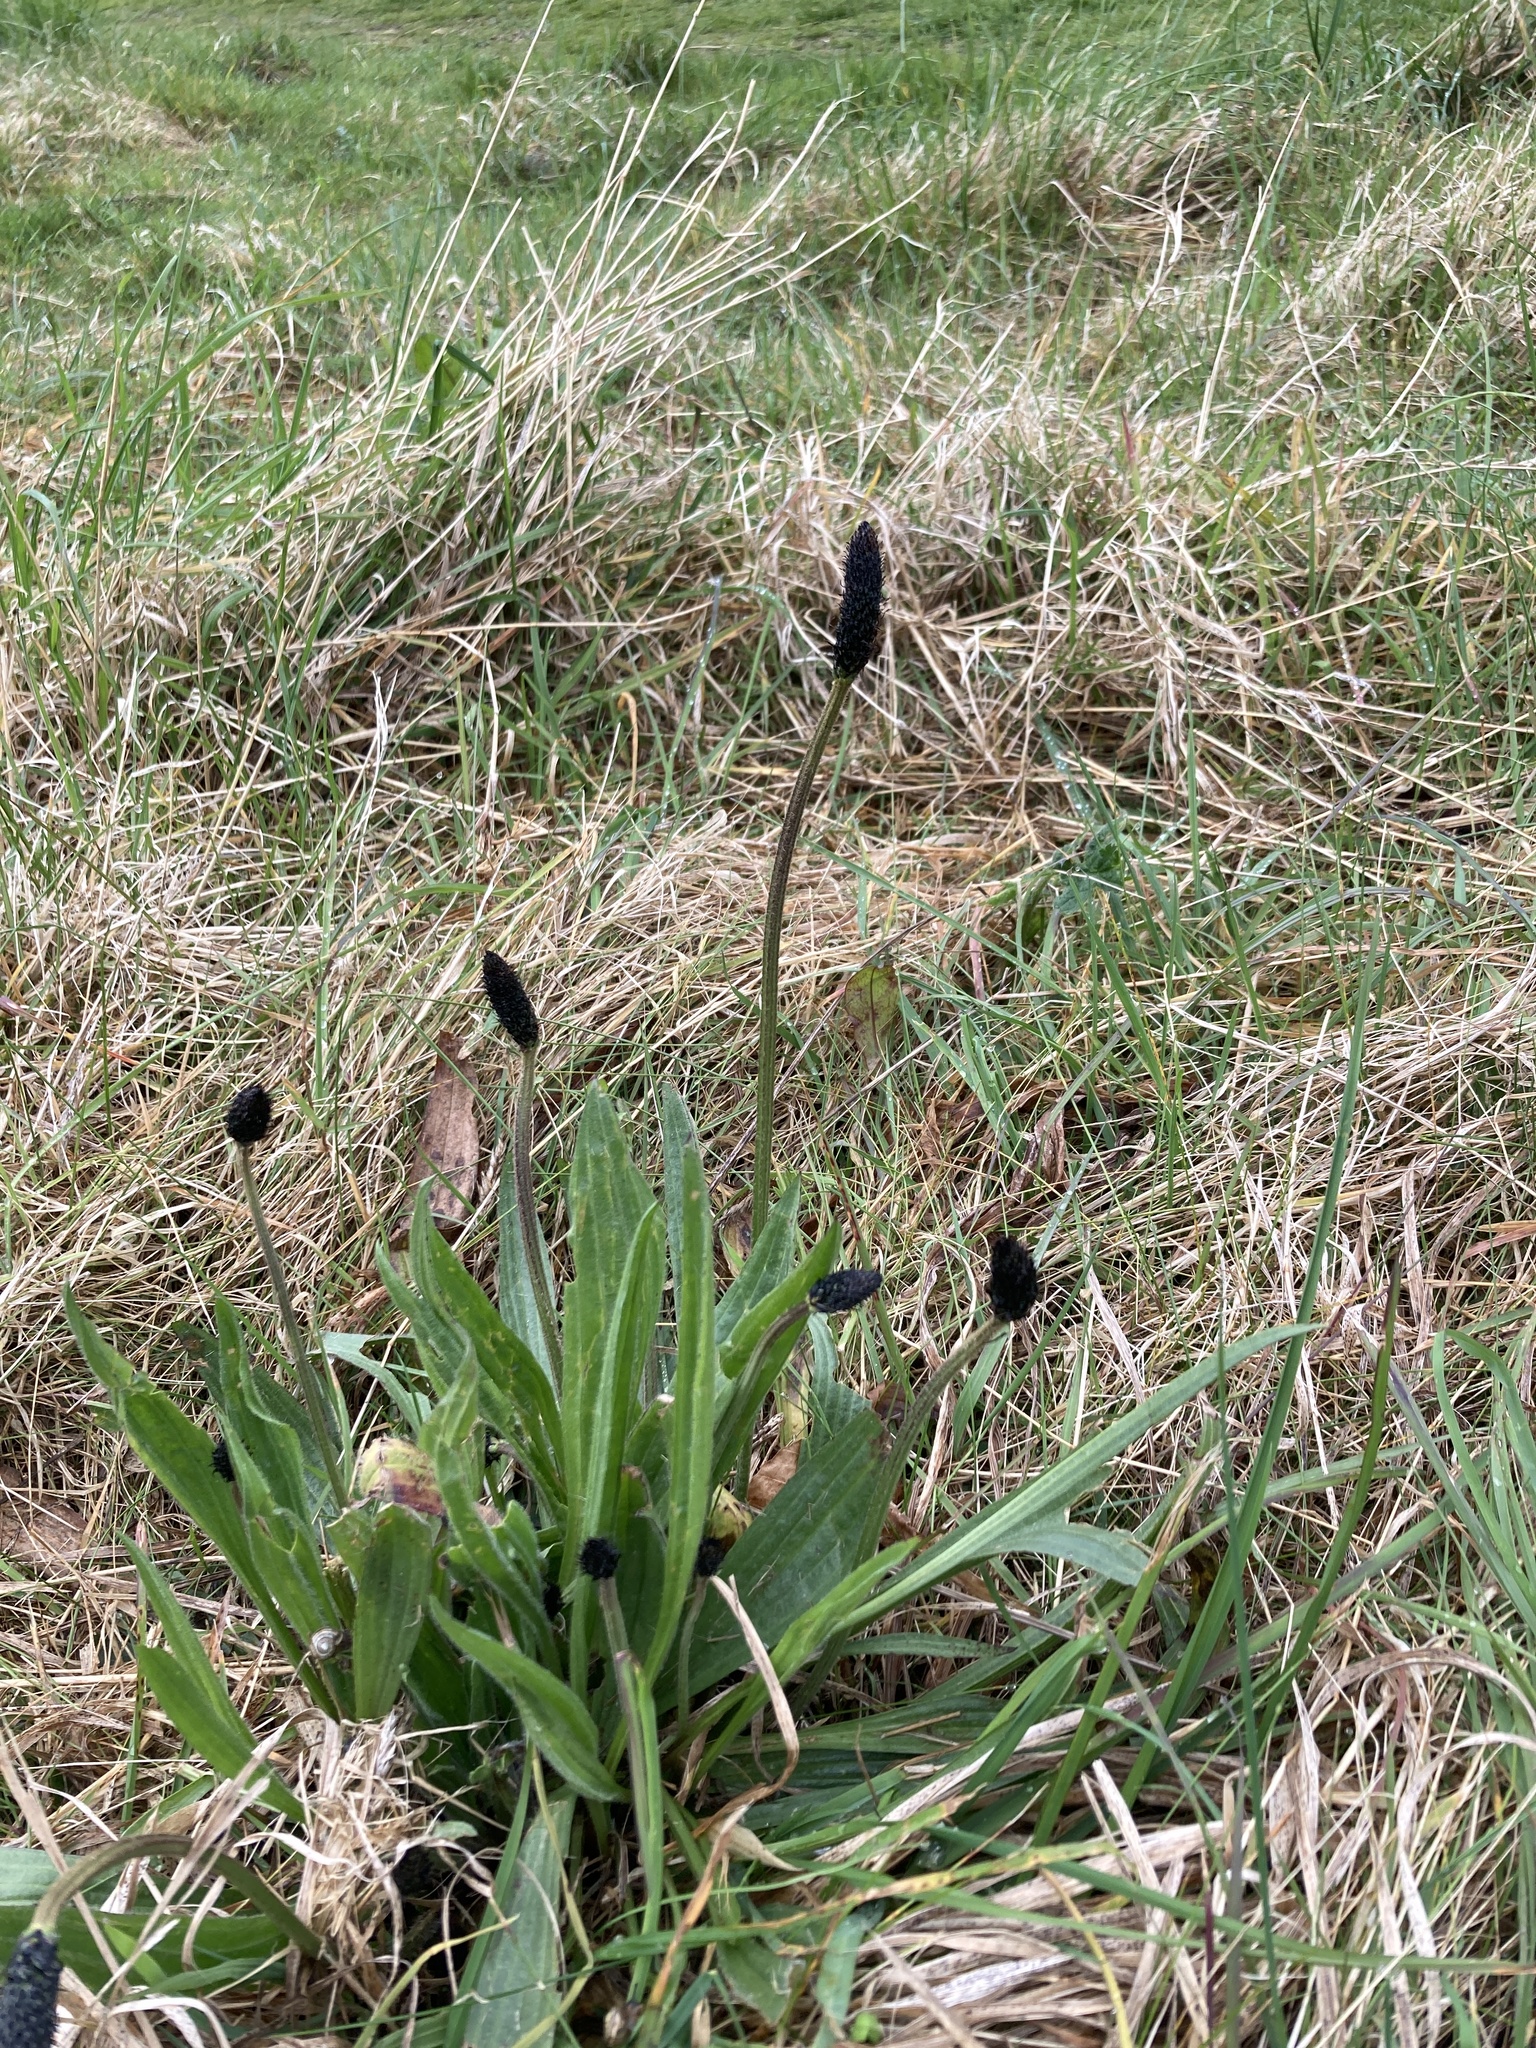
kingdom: Plantae
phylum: Tracheophyta
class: Magnoliopsida
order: Lamiales
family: Plantaginaceae
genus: Plantago
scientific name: Plantago lanceolata
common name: Ribwort plantain
